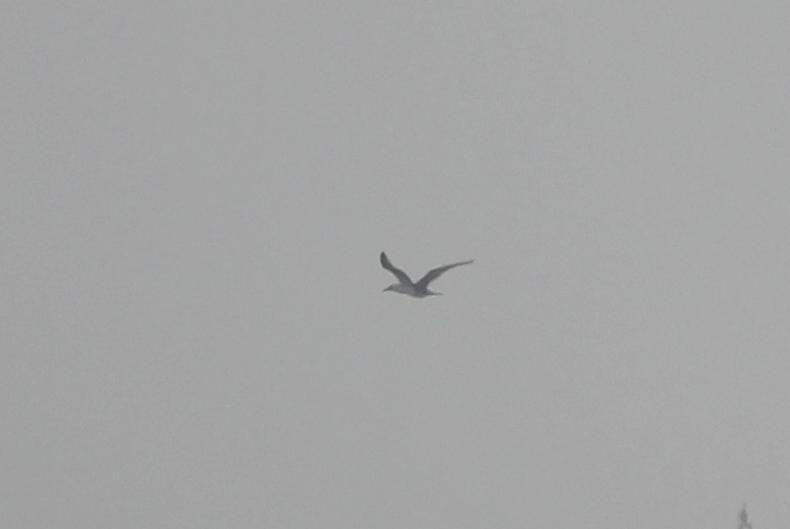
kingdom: Animalia
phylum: Chordata
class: Aves
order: Suliformes
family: Sulidae
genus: Morus
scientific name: Morus bassanus
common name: Northern gannet
